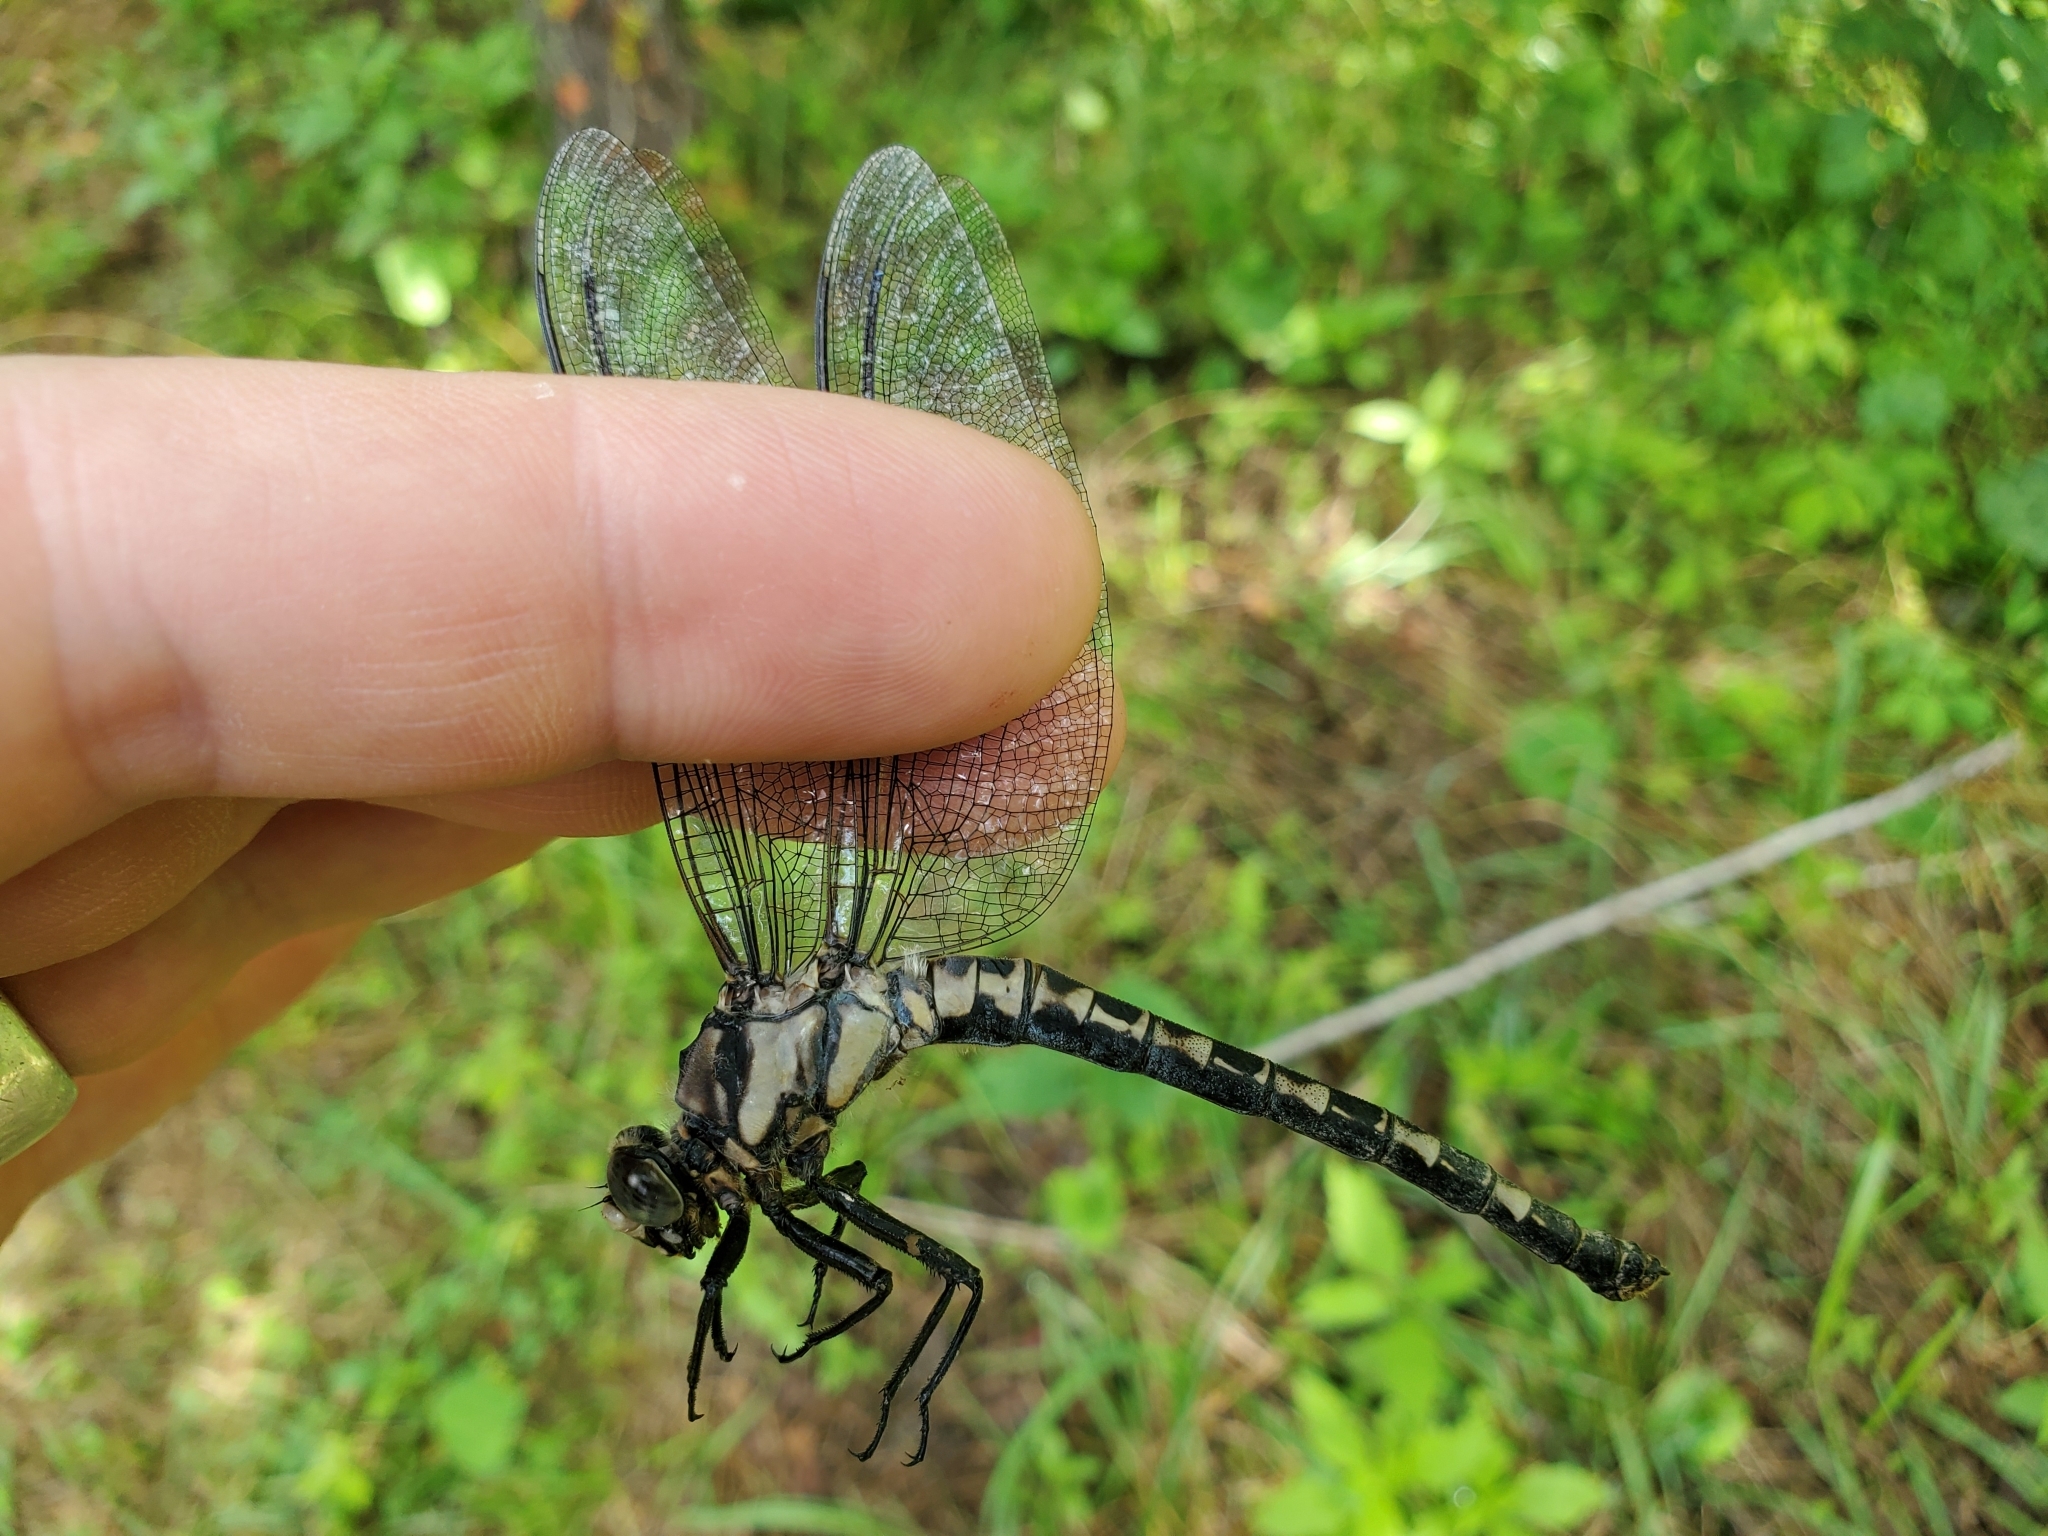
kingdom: Animalia
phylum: Arthropoda
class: Insecta
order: Odonata
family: Petaluridae
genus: Tachopteryx
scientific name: Tachopteryx thoreyi
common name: Gray petaltail
